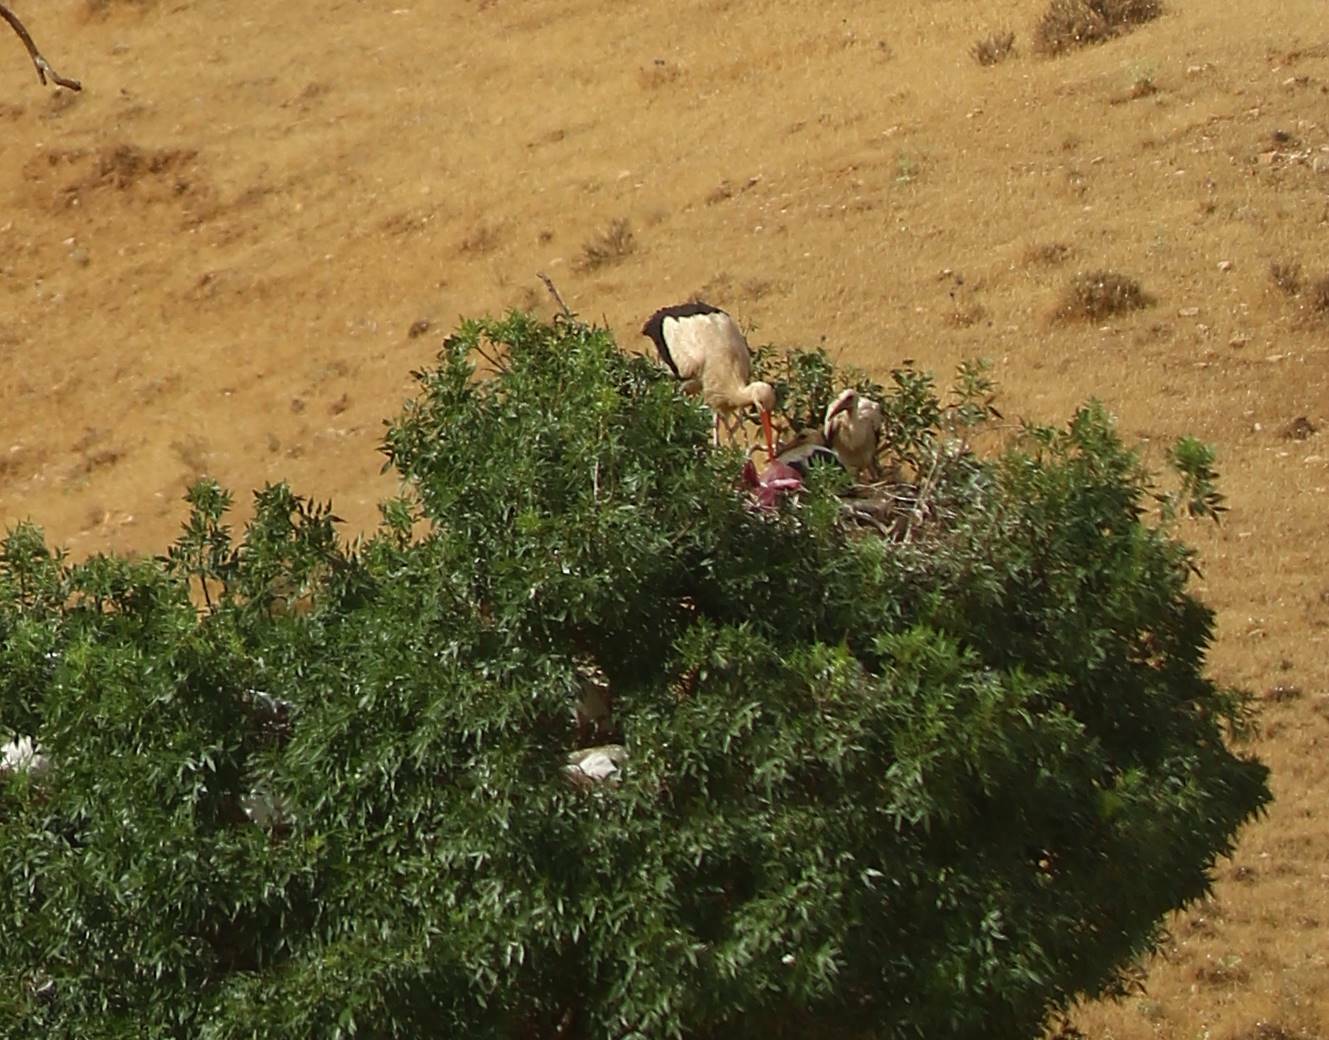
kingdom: Animalia
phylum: Chordata
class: Aves
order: Ciconiiformes
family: Ciconiidae
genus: Ciconia
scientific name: Ciconia ciconia
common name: White stork
